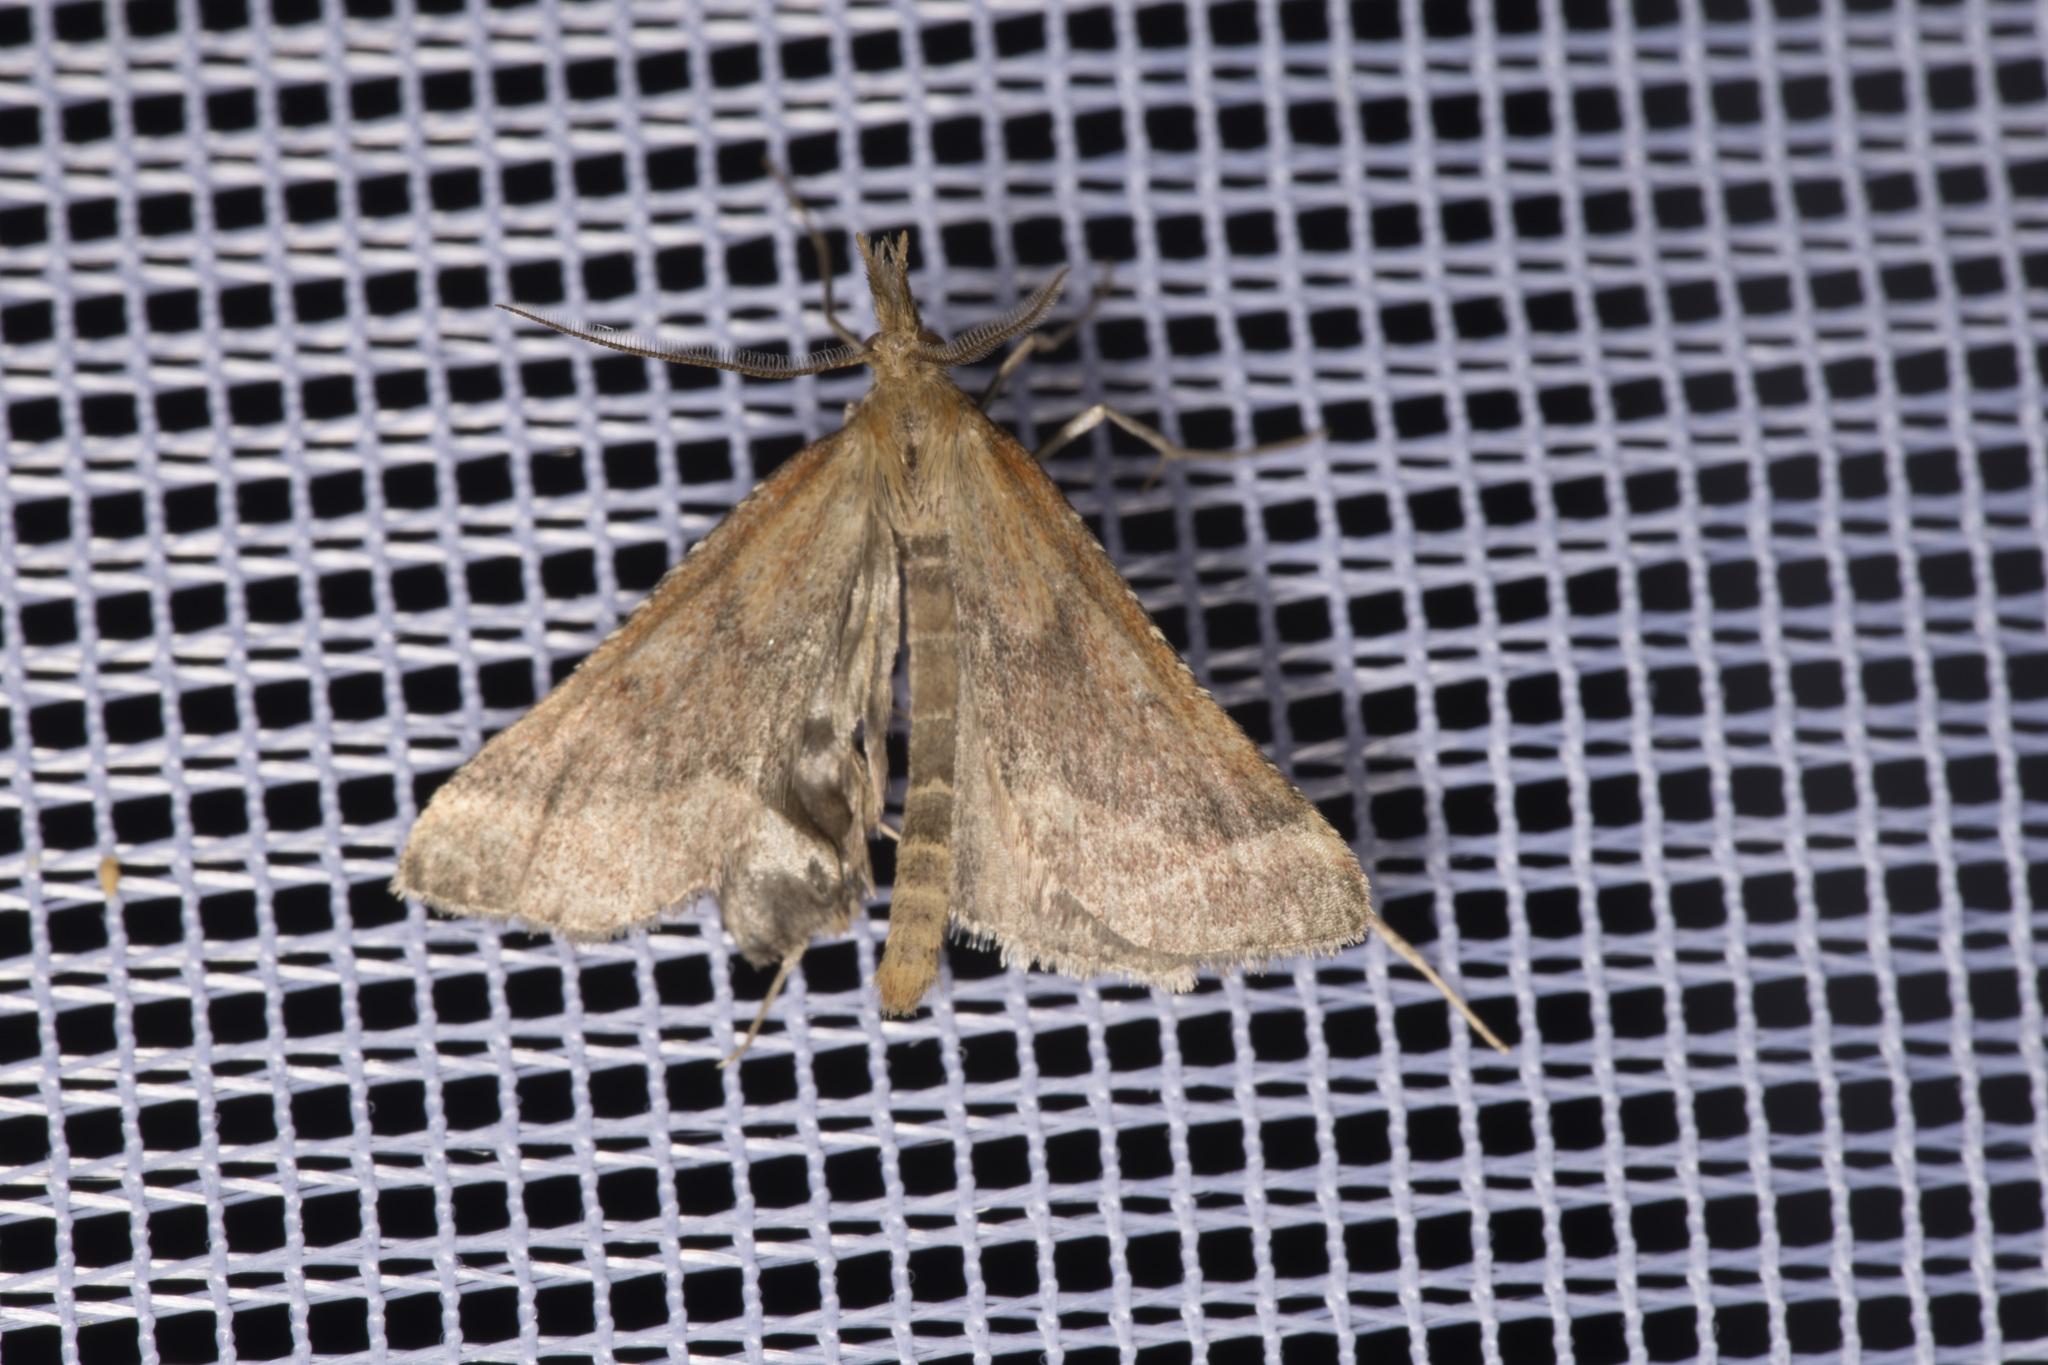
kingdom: Animalia
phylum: Arthropoda
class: Insecta
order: Lepidoptera
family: Pyralidae
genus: Synaphe
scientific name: Synaphe punctalis
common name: Long-legged tabby
